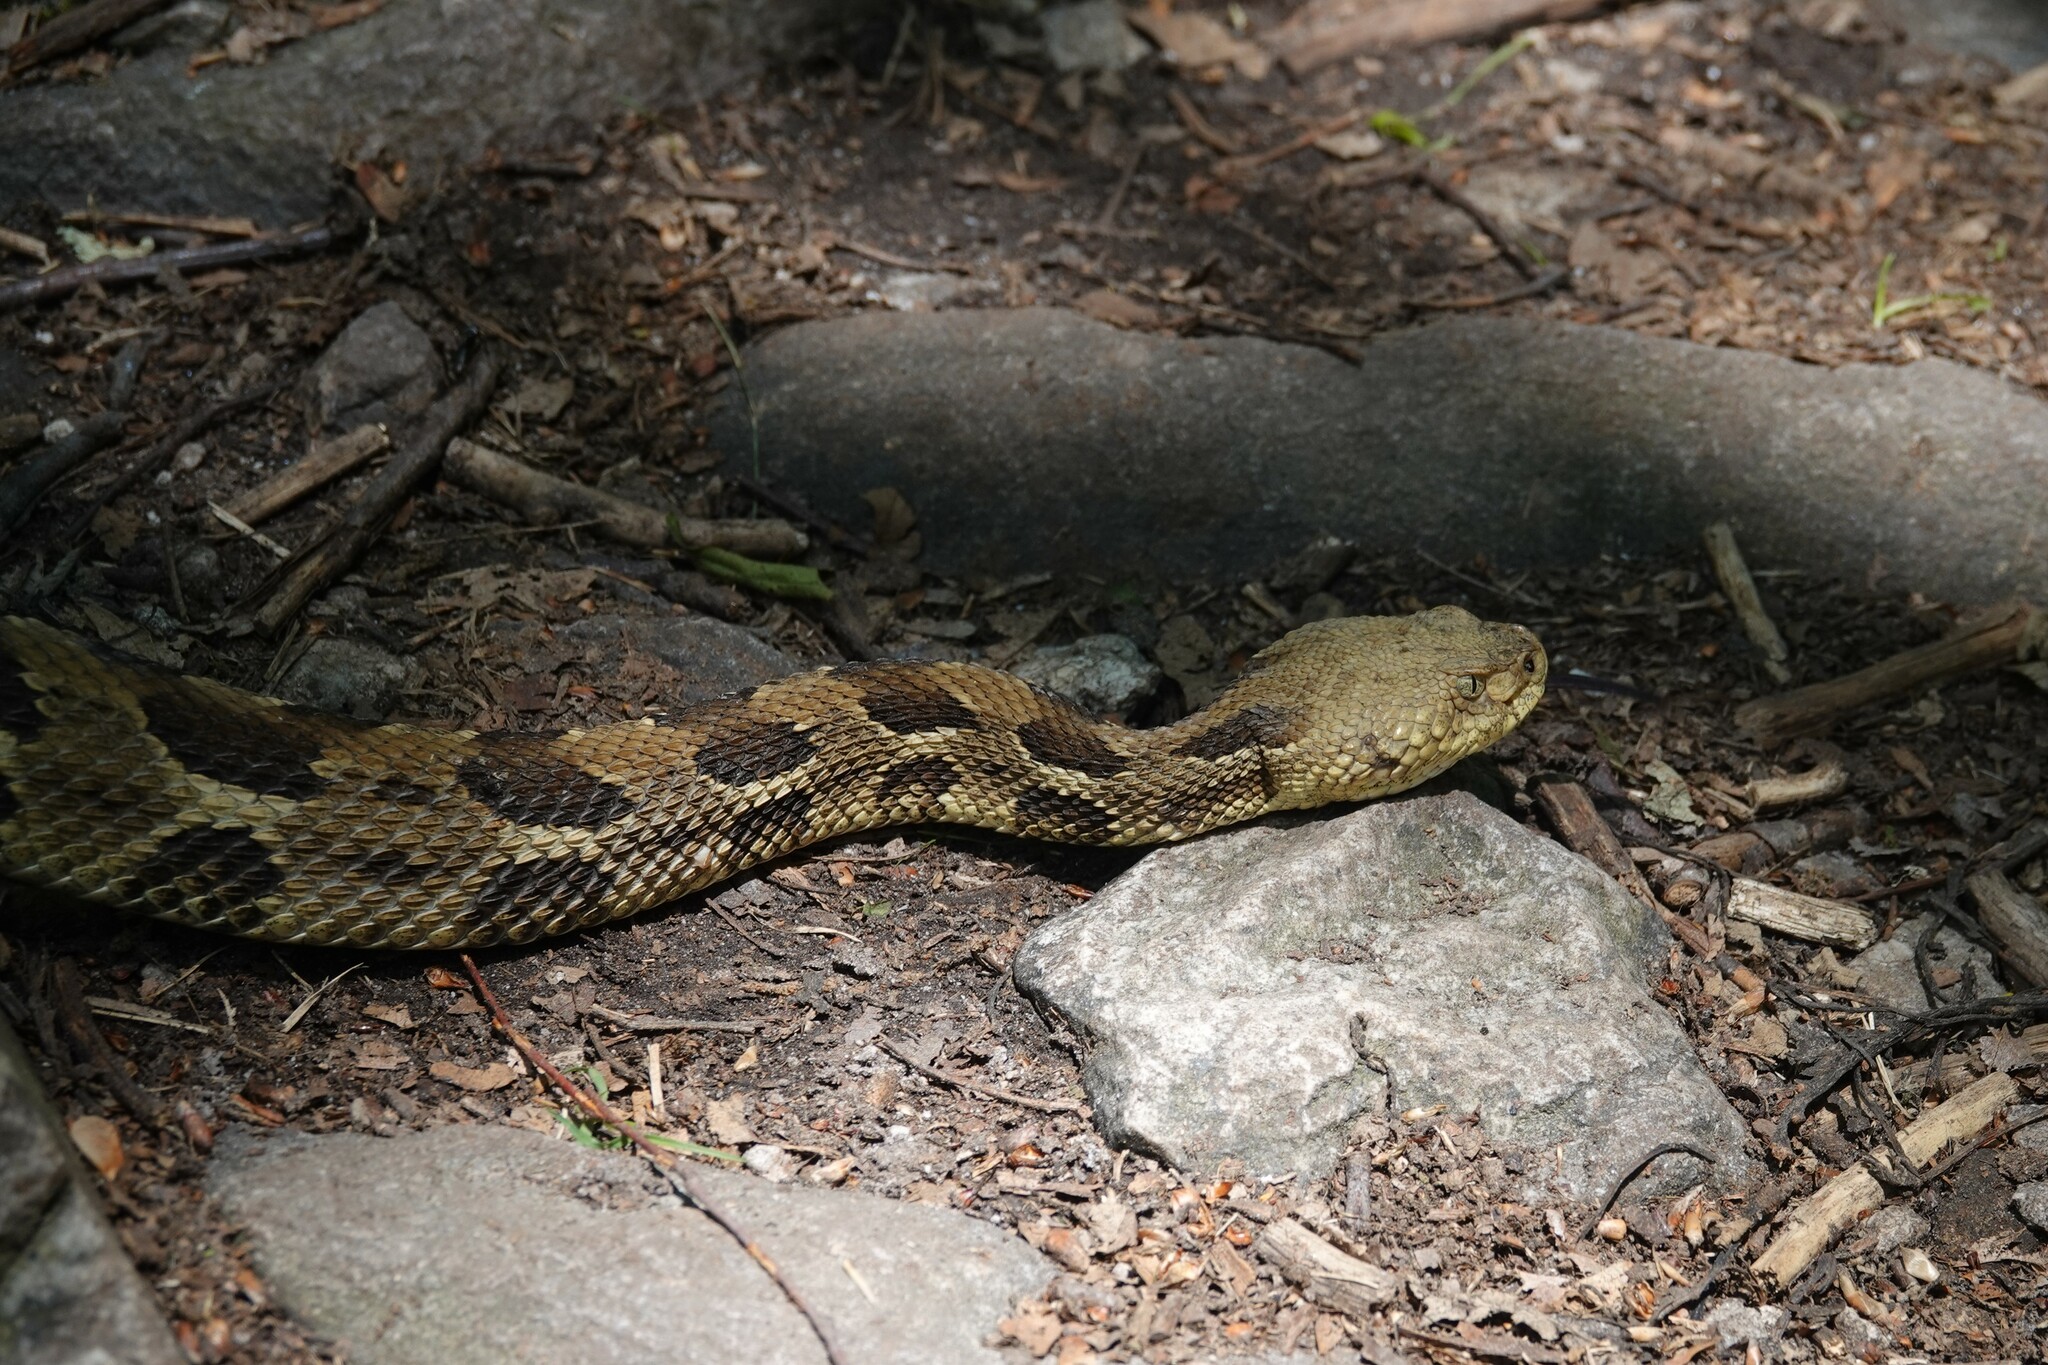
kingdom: Animalia
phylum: Chordata
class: Squamata
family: Viperidae
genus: Crotalus
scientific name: Crotalus horridus
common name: Timber rattlesnake
